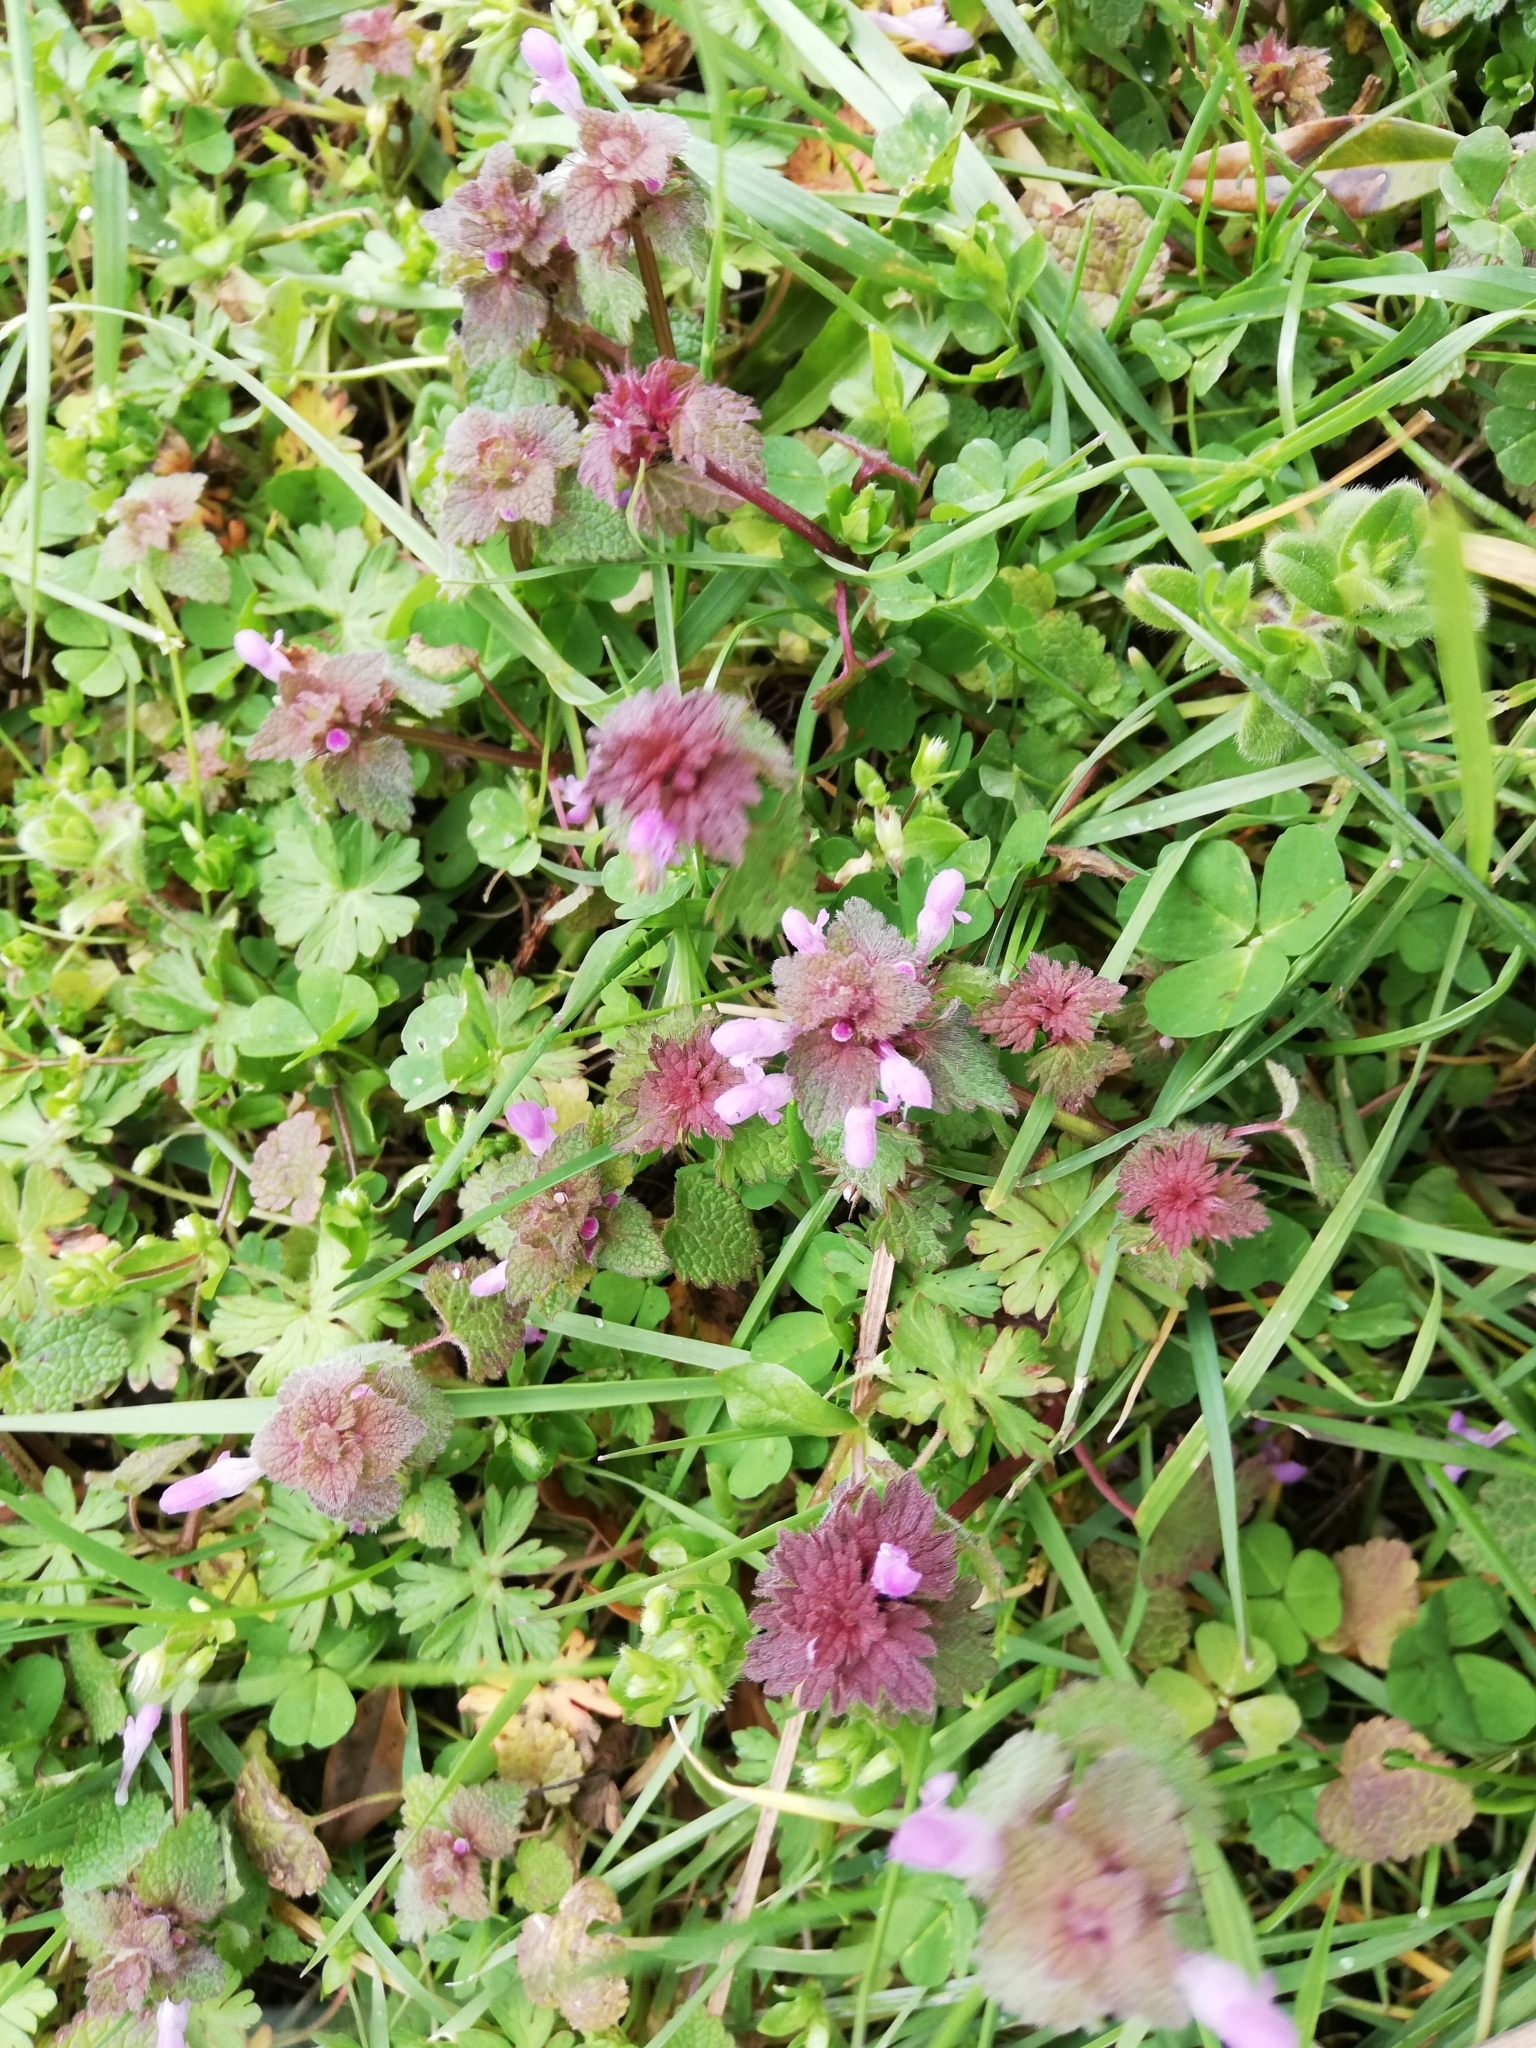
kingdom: Plantae
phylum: Tracheophyta
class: Magnoliopsida
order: Lamiales
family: Lamiaceae
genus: Lamium
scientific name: Lamium purpureum
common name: Red dead-nettle
